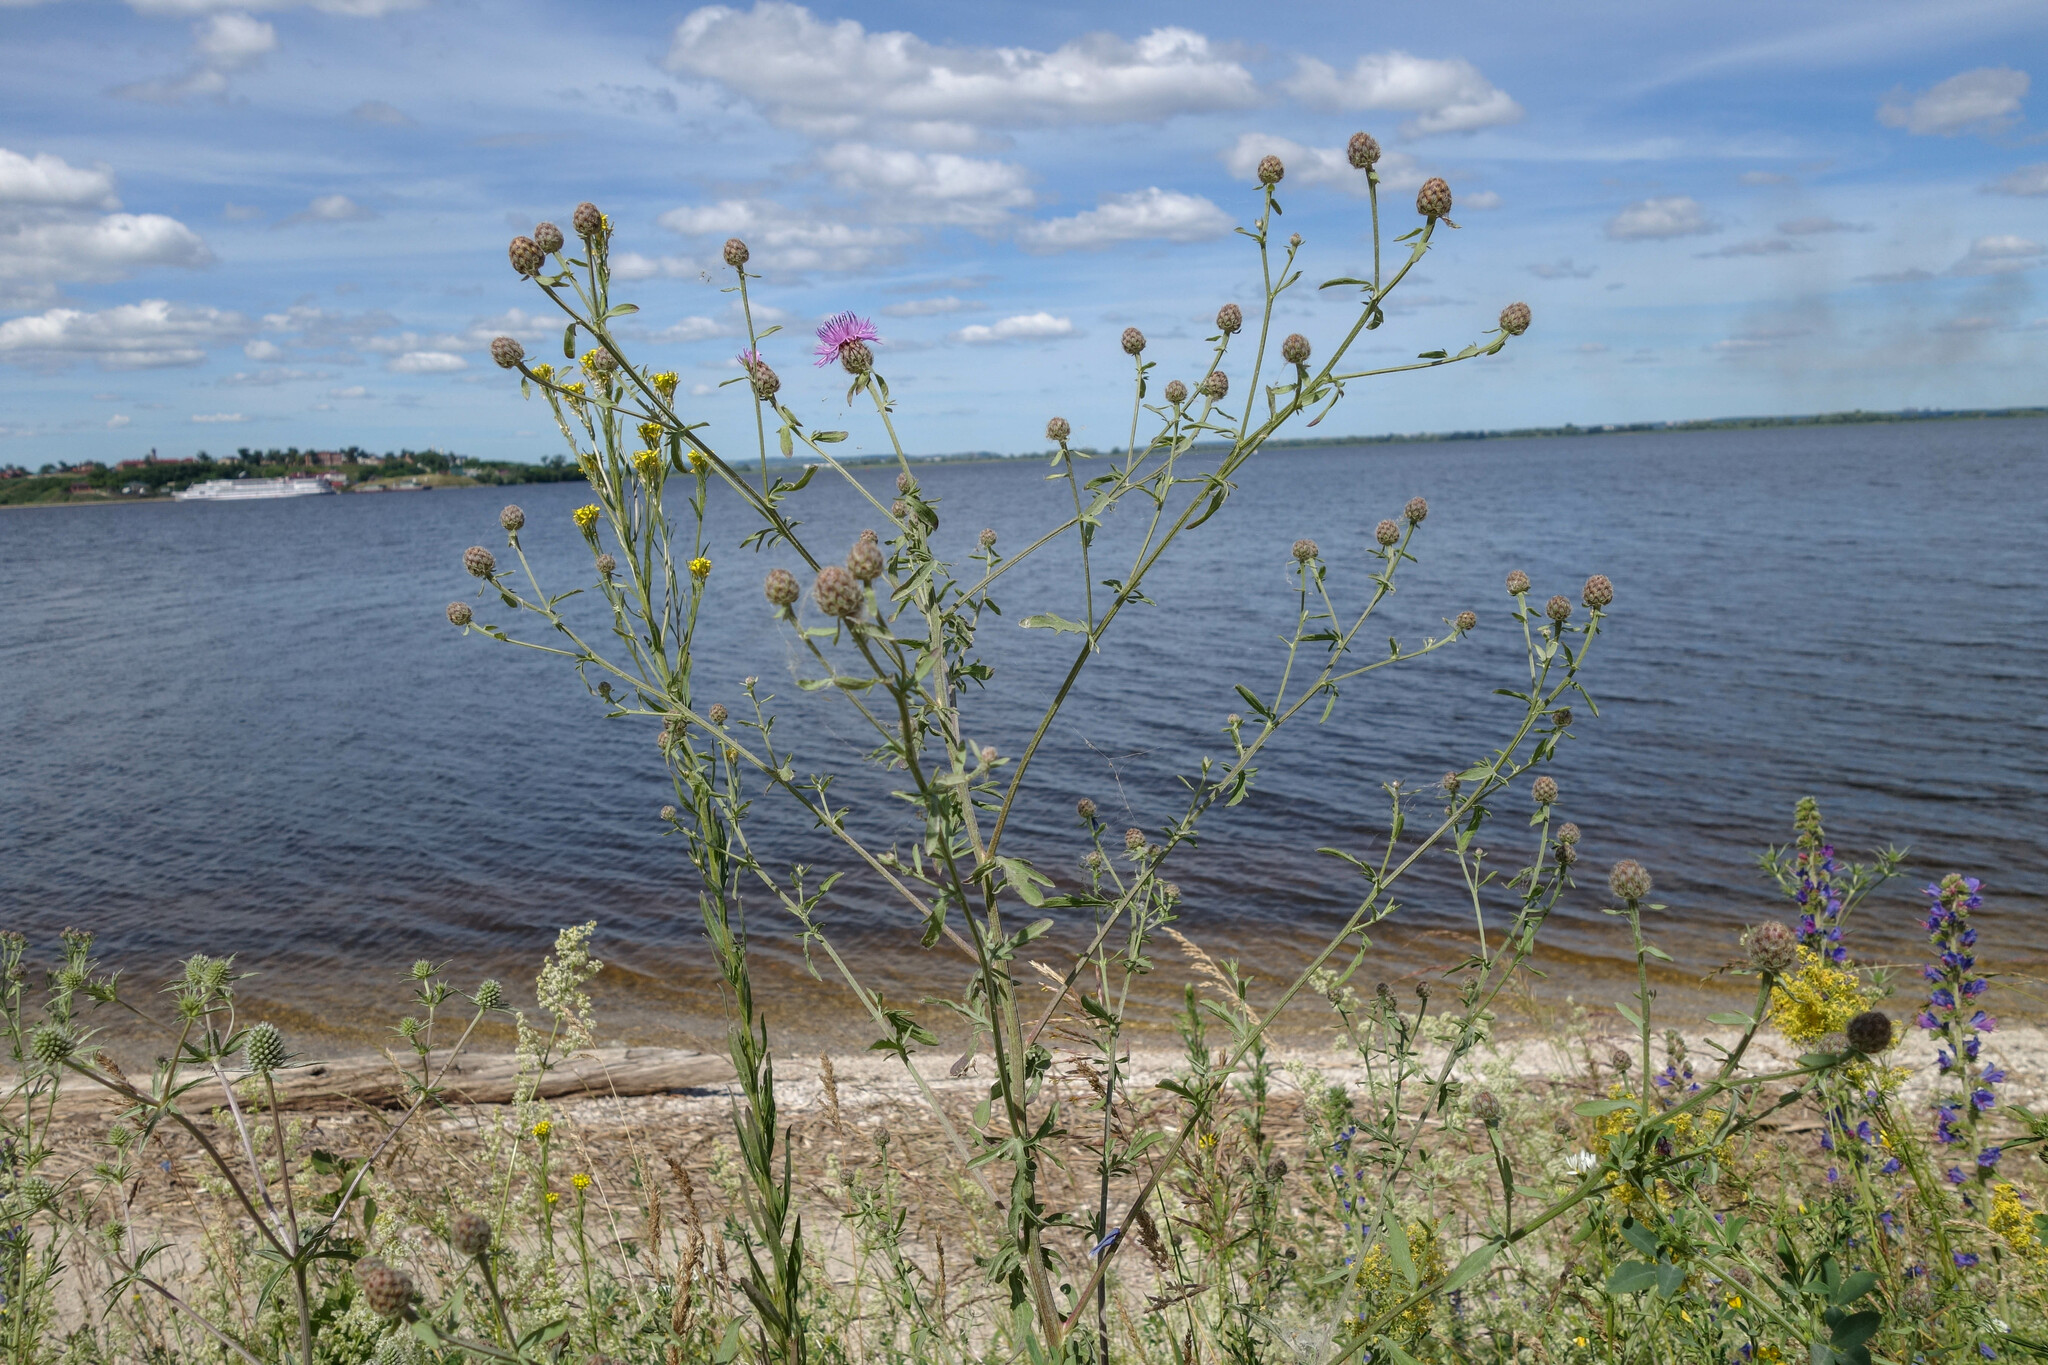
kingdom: Plantae
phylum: Tracheophyta
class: Magnoliopsida
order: Asterales
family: Asteraceae
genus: Centaurea
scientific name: Centaurea stoebe
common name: Spotted knapweed
